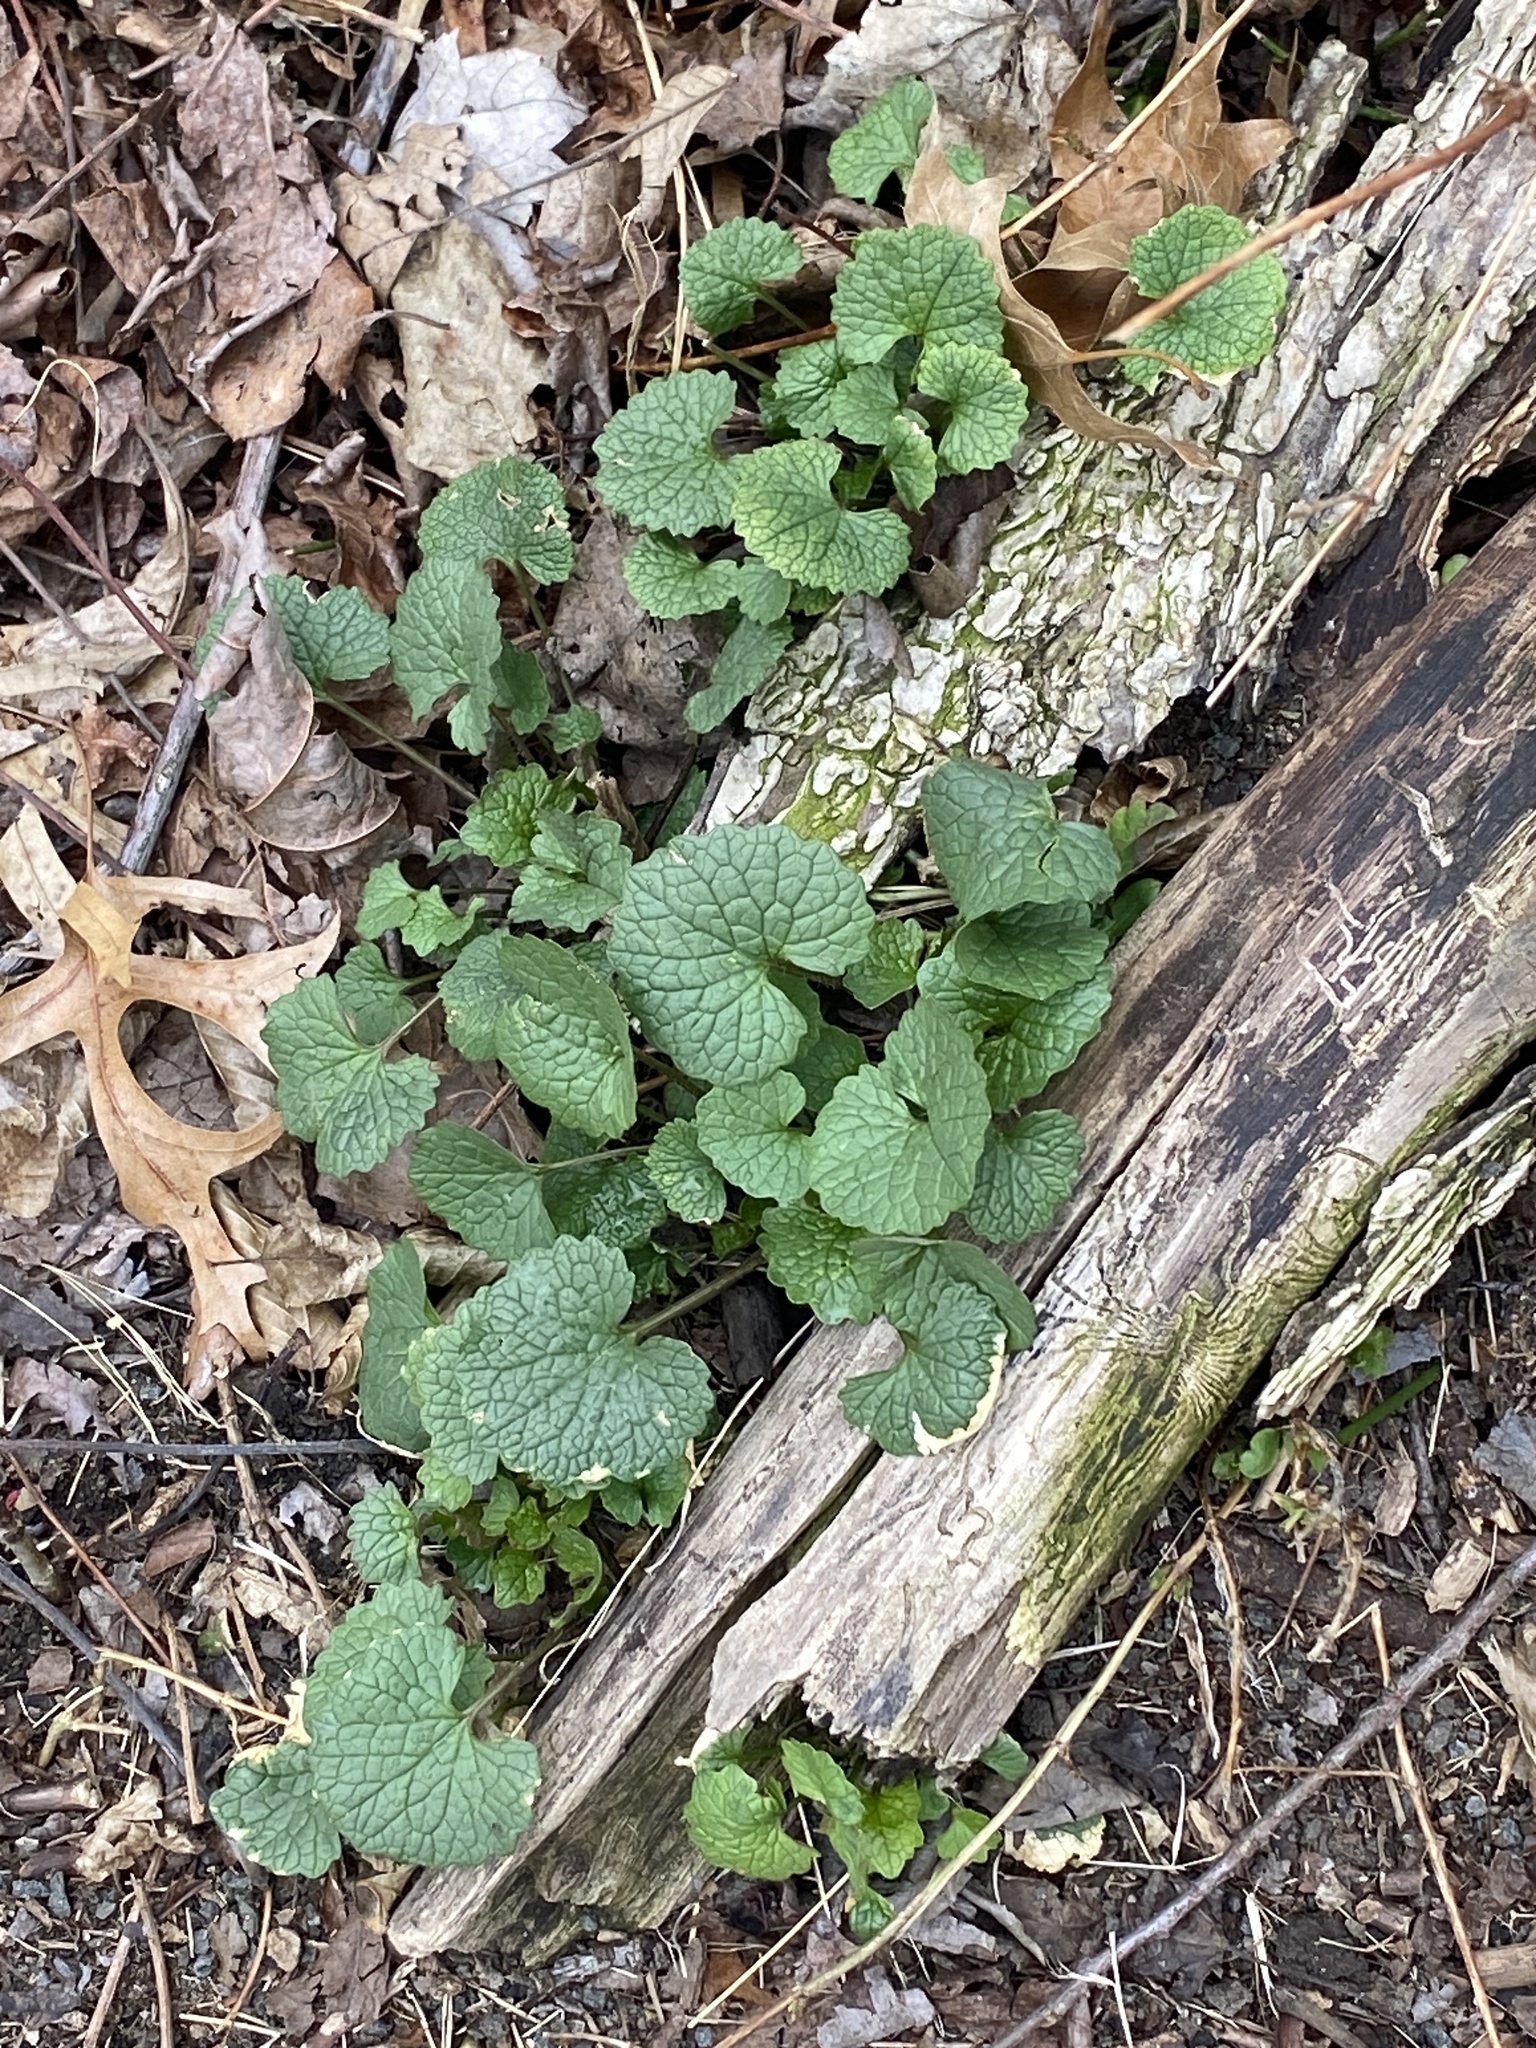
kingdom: Plantae
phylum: Tracheophyta
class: Magnoliopsida
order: Brassicales
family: Brassicaceae
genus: Alliaria
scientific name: Alliaria petiolata
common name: Garlic mustard
